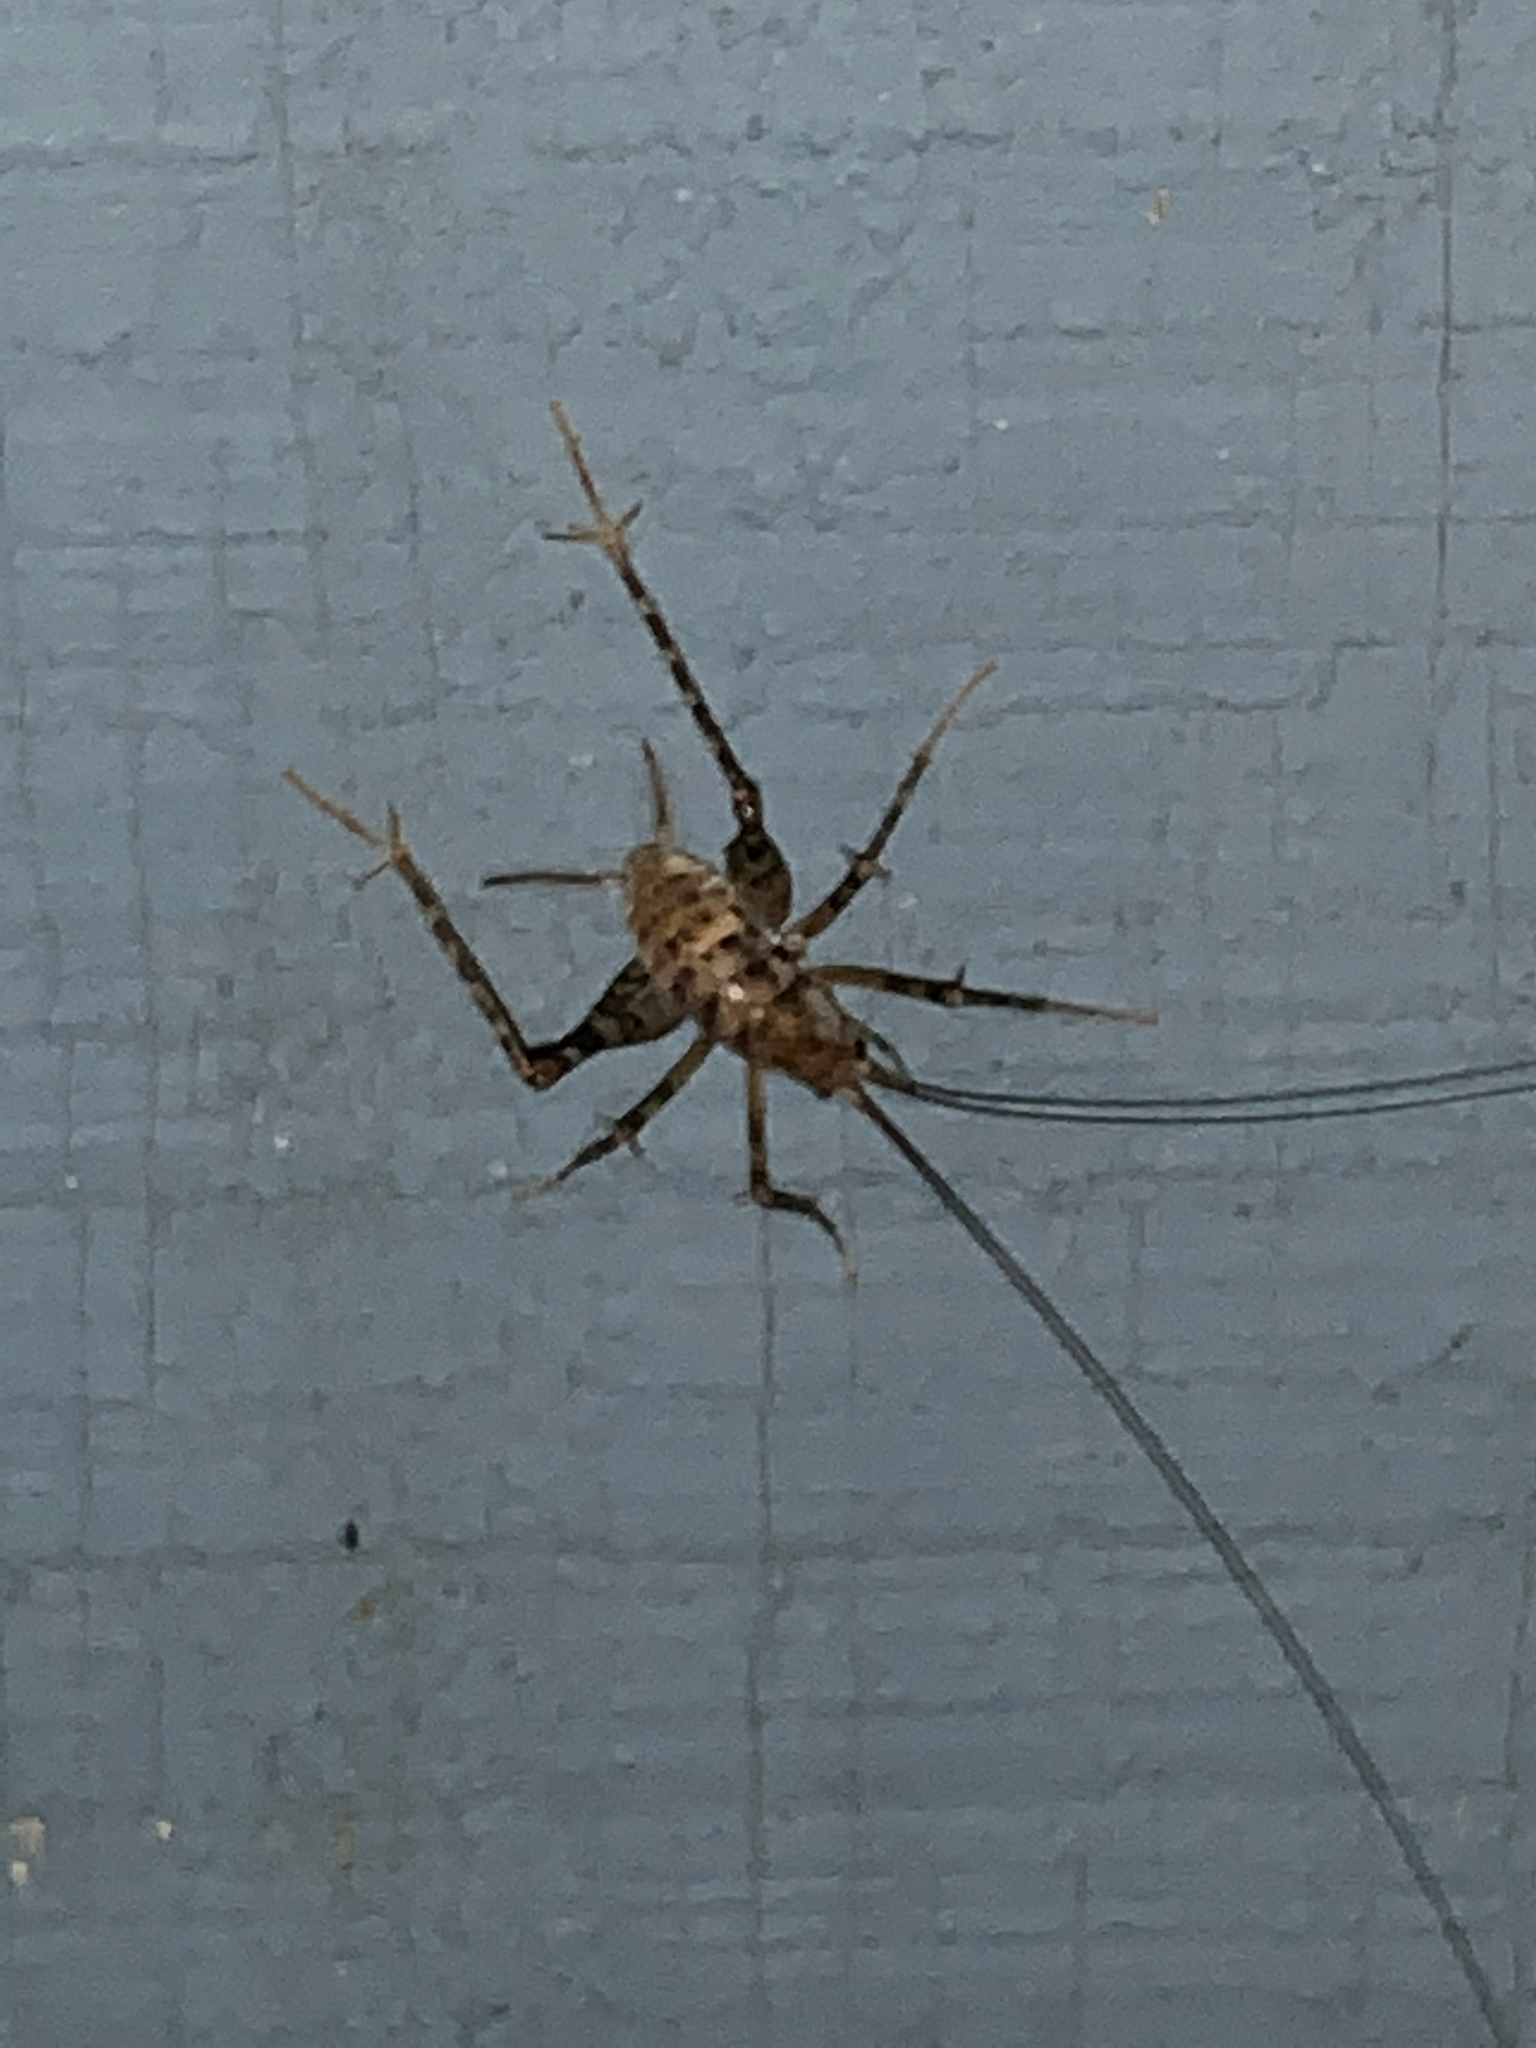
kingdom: Animalia
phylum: Arthropoda
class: Insecta
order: Orthoptera
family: Rhaphidophoridae
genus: Tachycines
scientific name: Tachycines asynamorus
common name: Greenhouse camel cricket
